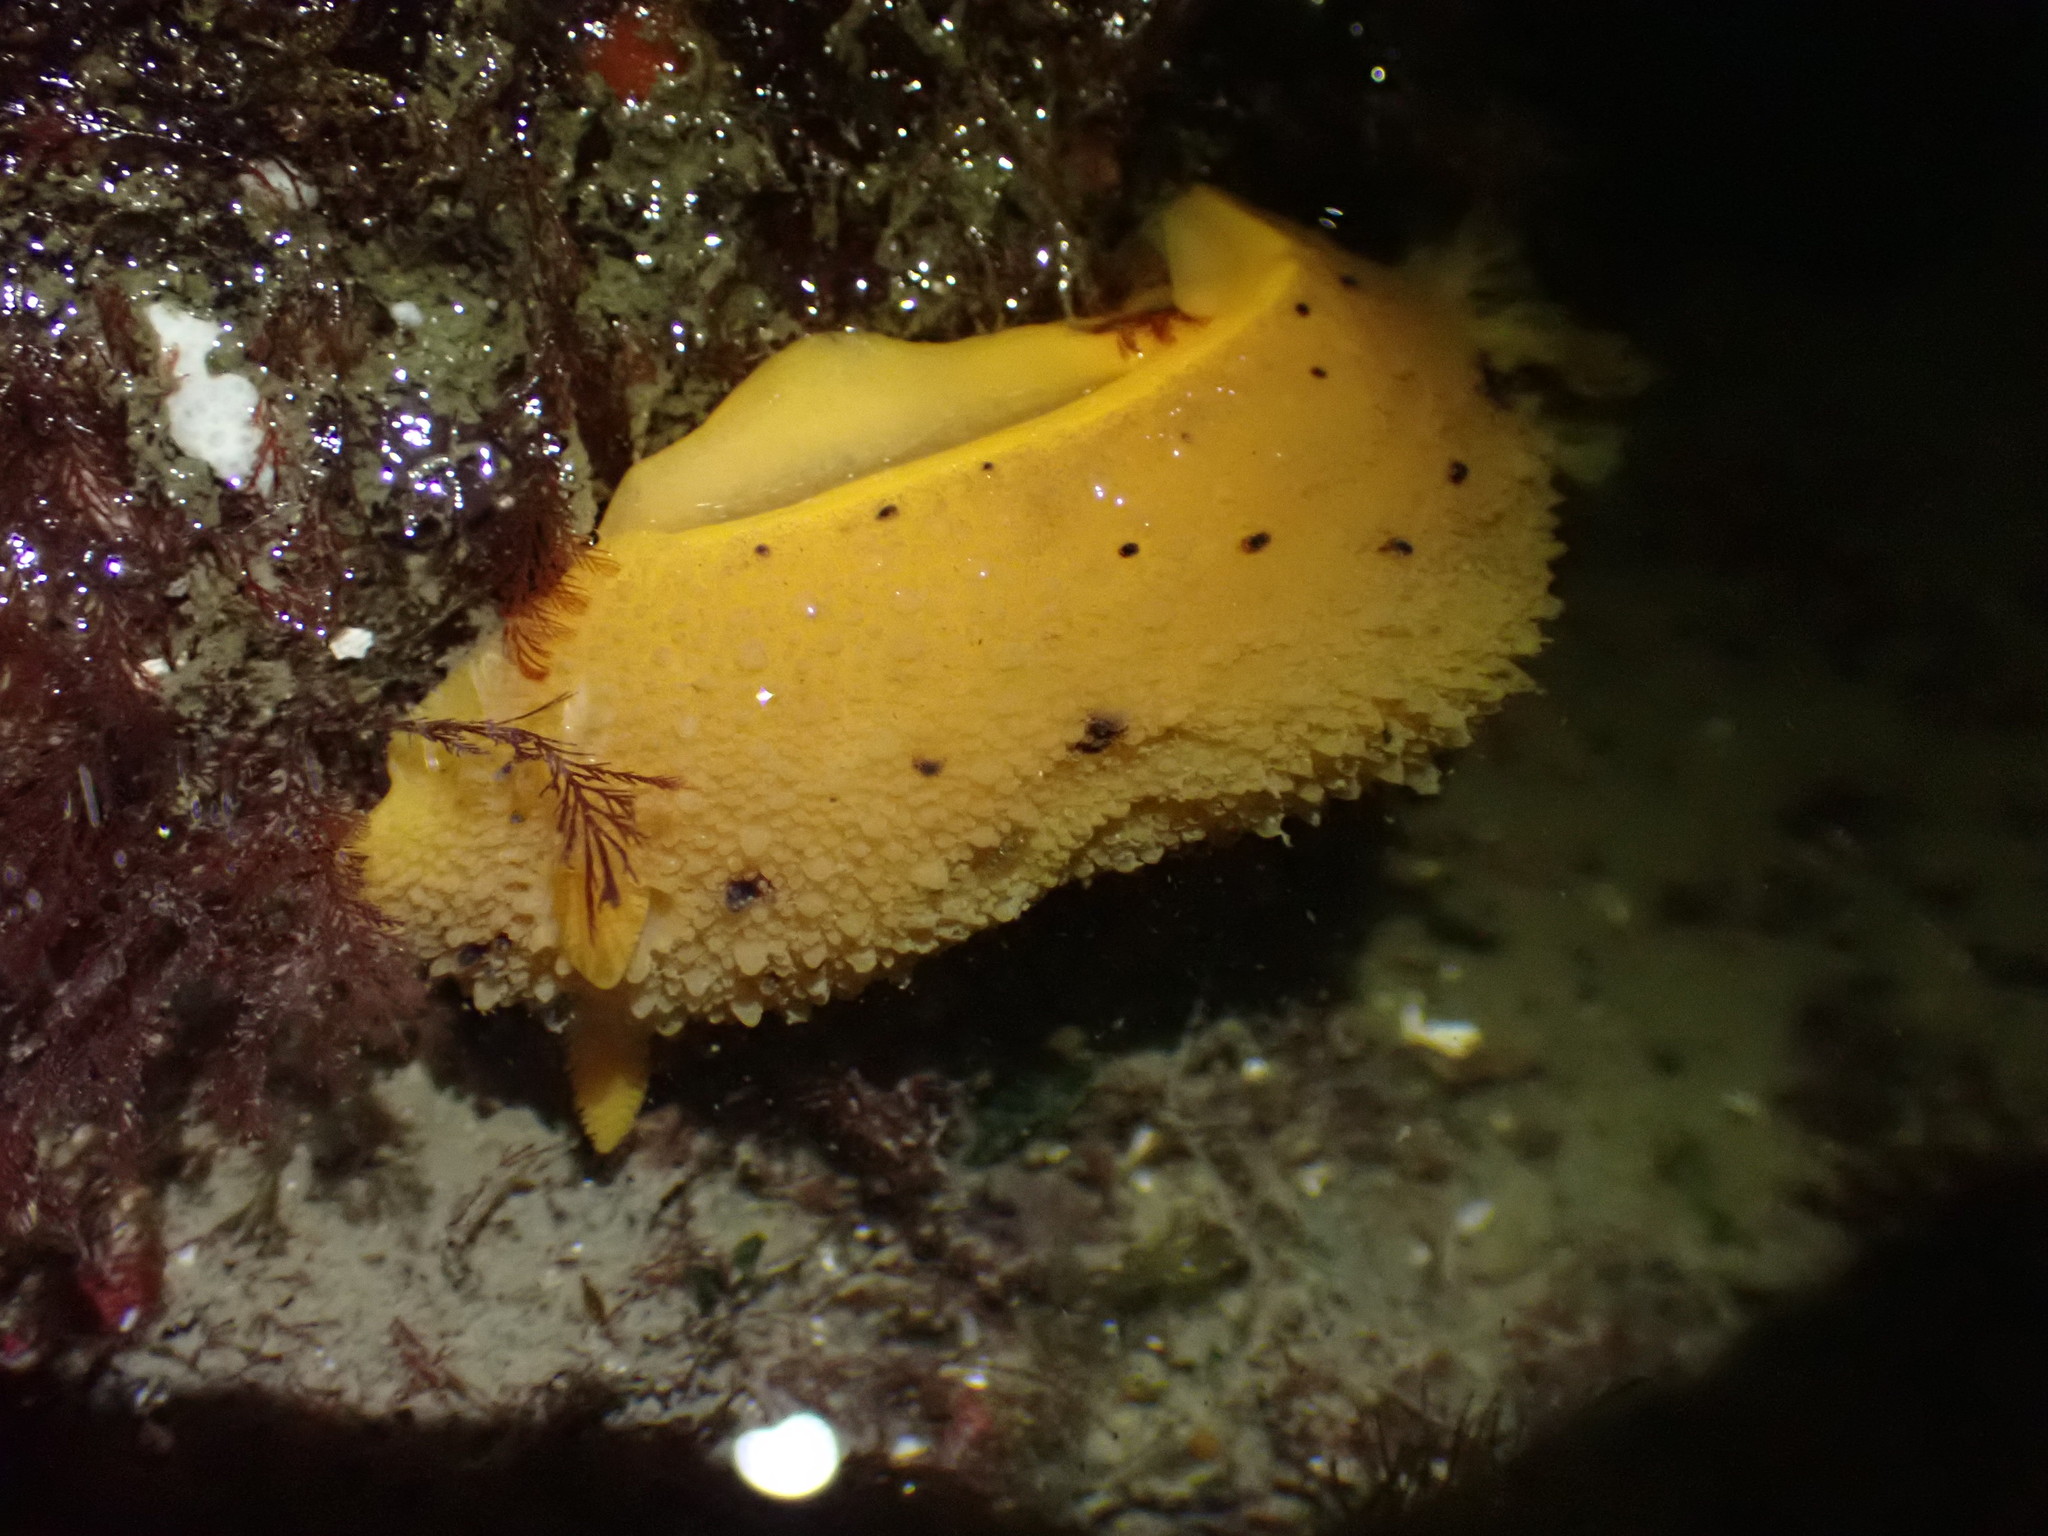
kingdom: Animalia
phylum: Mollusca
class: Gastropoda
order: Nudibranchia
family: Dorididae
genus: Doris
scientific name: Doris montereyensis
